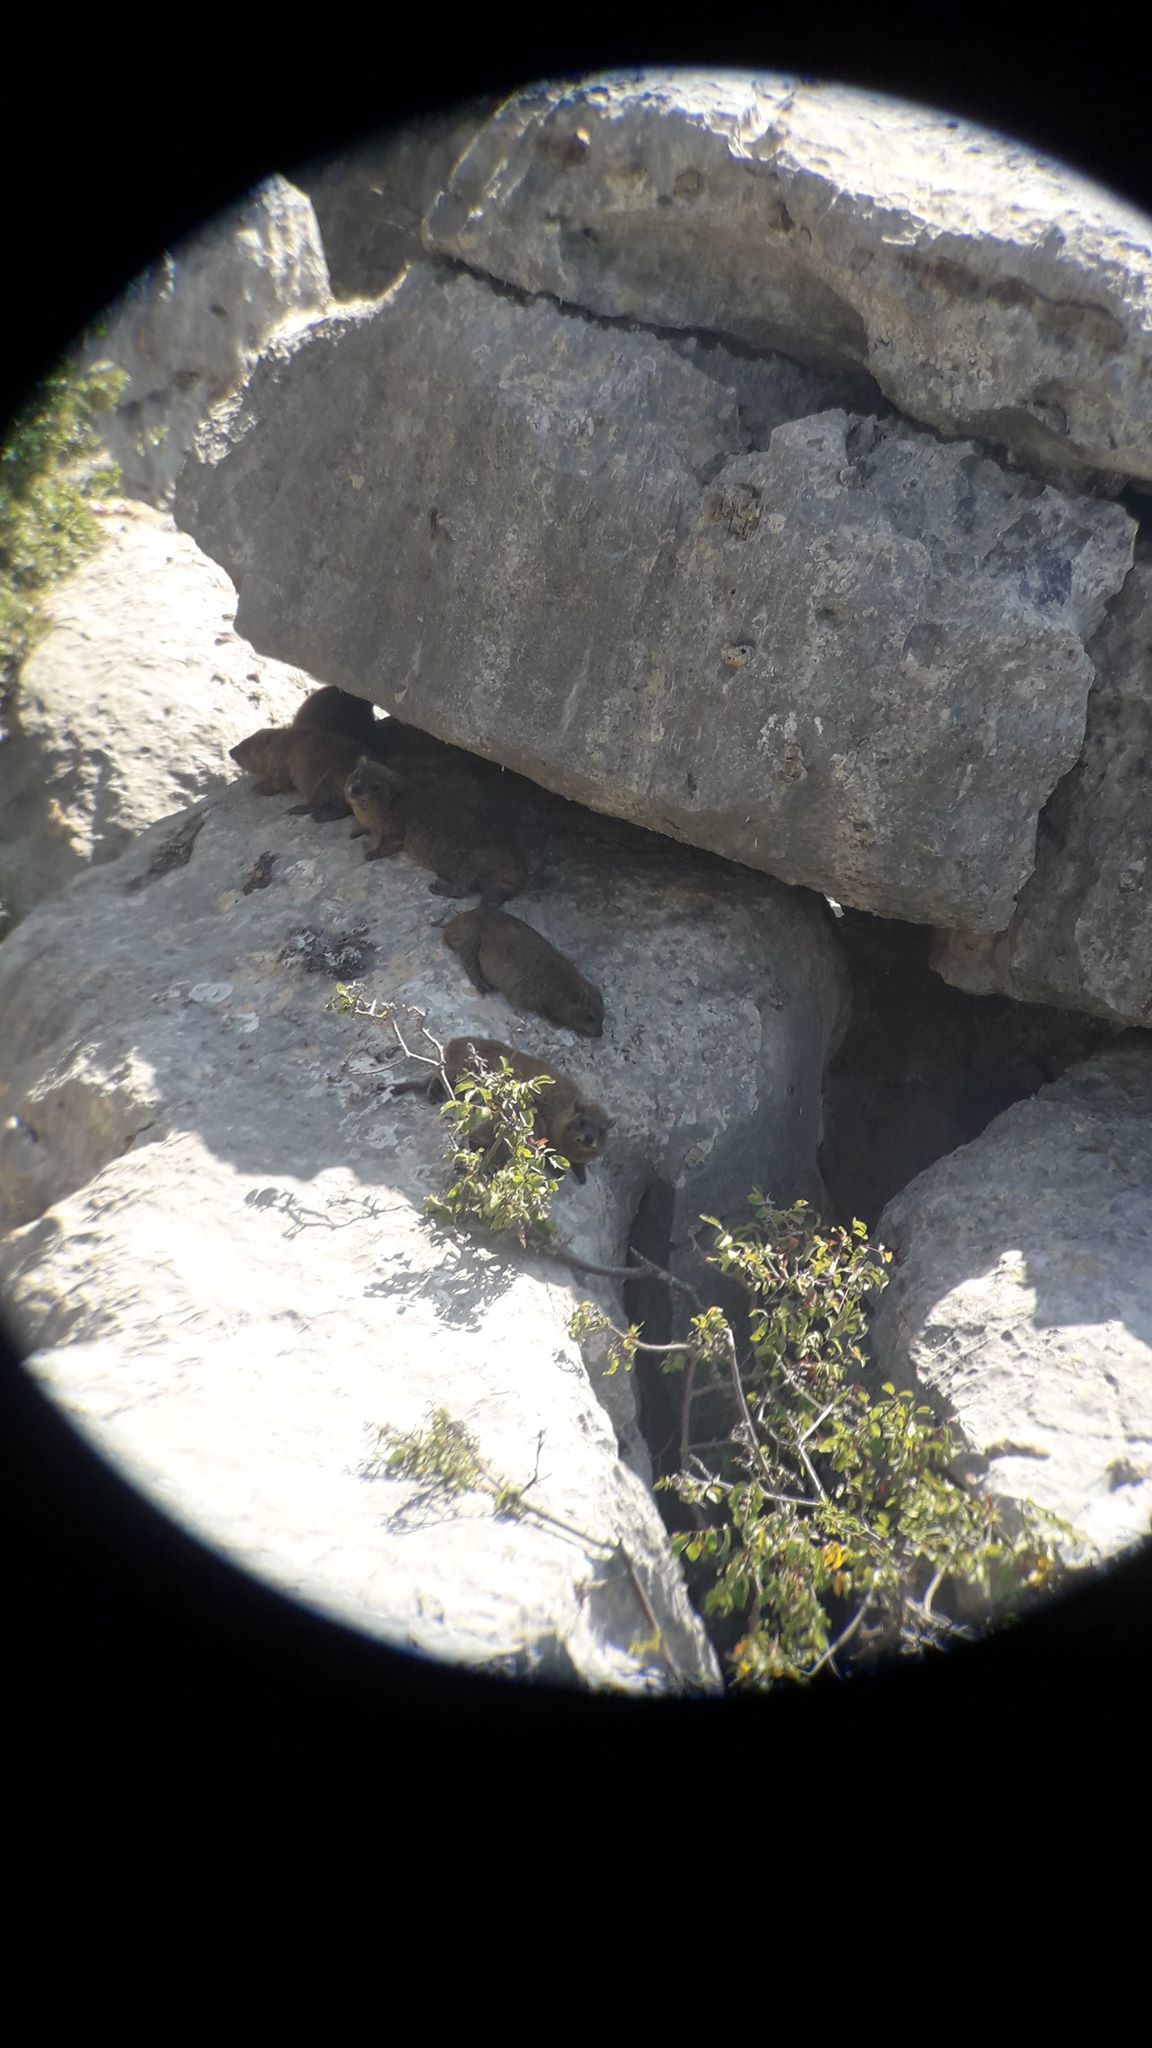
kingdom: Animalia
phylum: Chordata
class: Mammalia
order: Hyracoidea
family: Procaviidae
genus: Procavia
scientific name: Procavia capensis
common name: Rock hyrax
